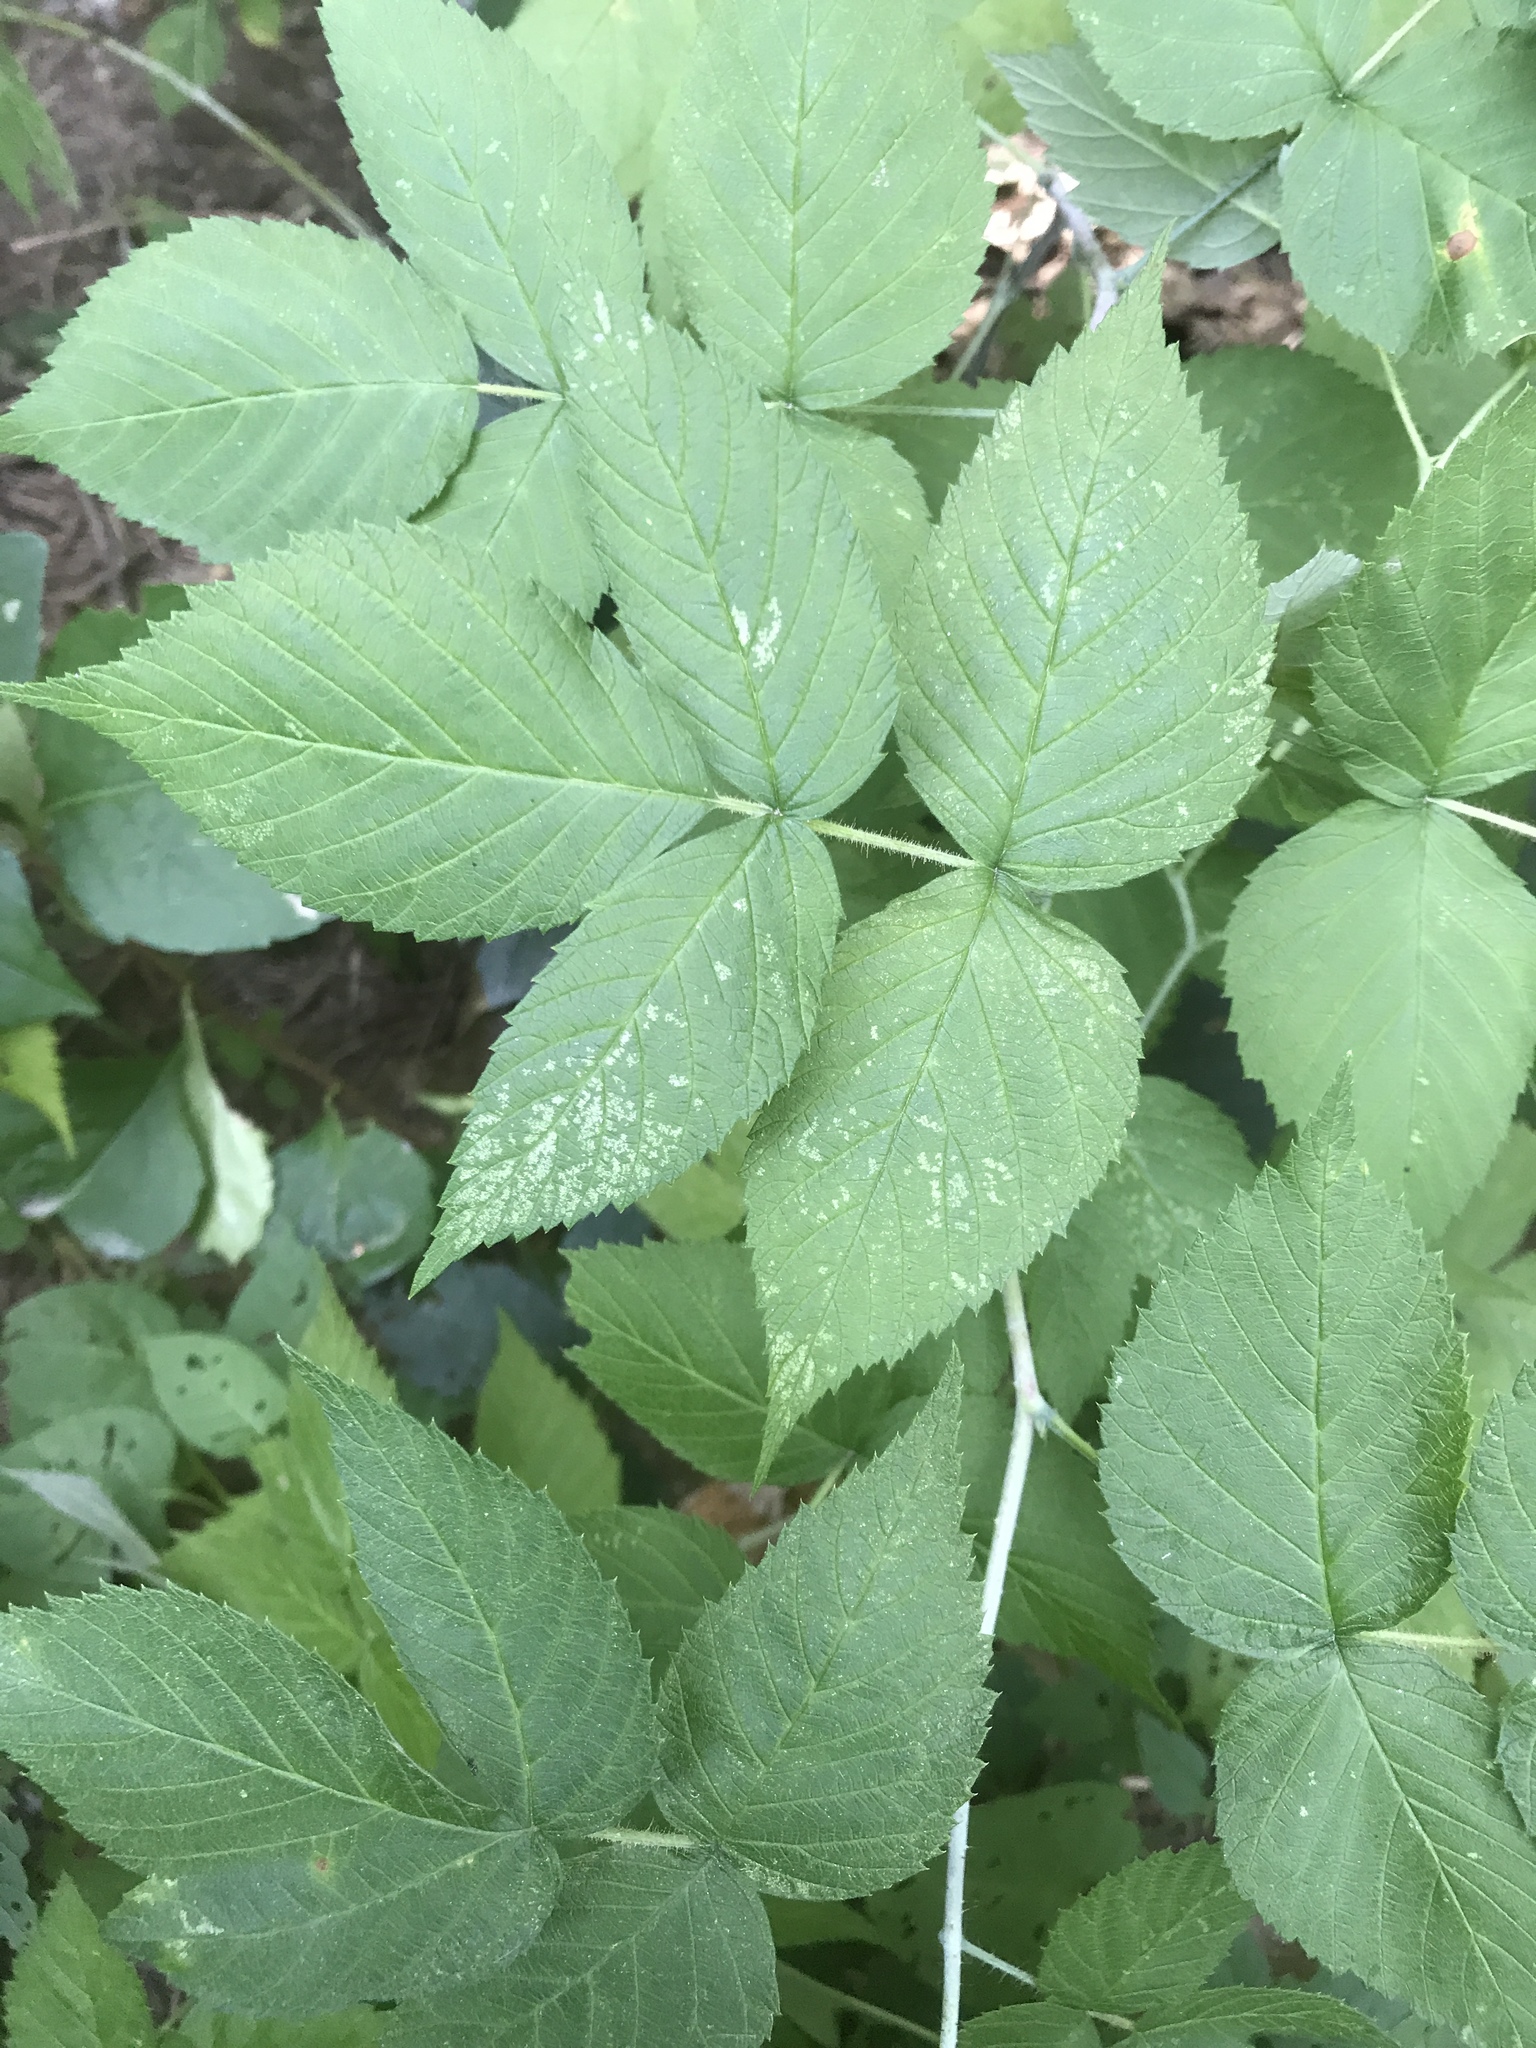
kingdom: Plantae
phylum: Tracheophyta
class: Magnoliopsida
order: Rosales
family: Rosaceae
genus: Rubus
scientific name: Rubus occidentalis
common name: Black raspberry
